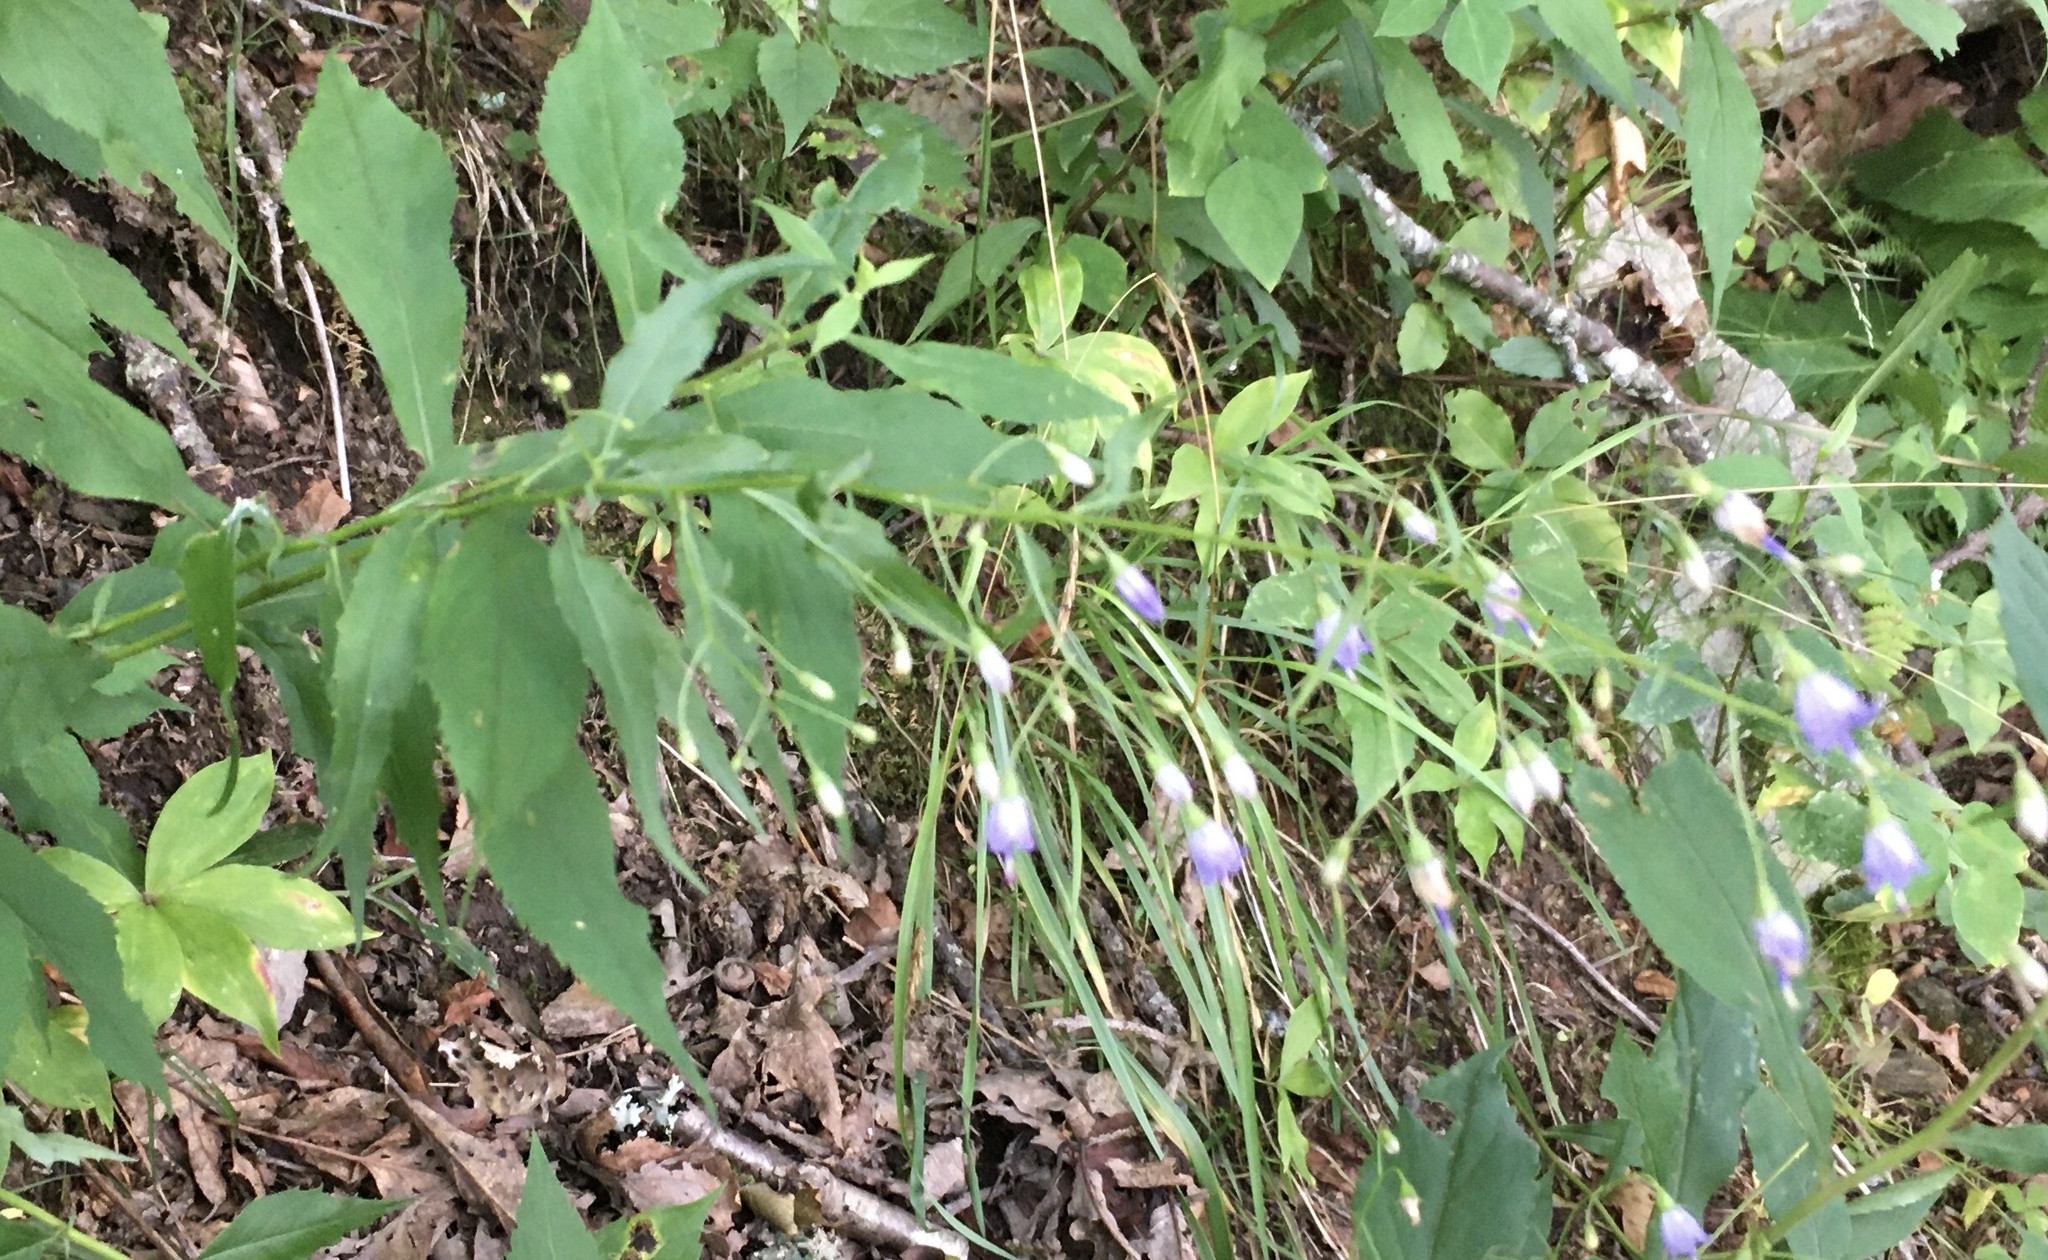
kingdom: Plantae
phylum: Tracheophyta
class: Magnoliopsida
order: Asterales
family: Campanulaceae
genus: Campanula
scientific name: Campanula divaricata
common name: Appalachian bellflower
